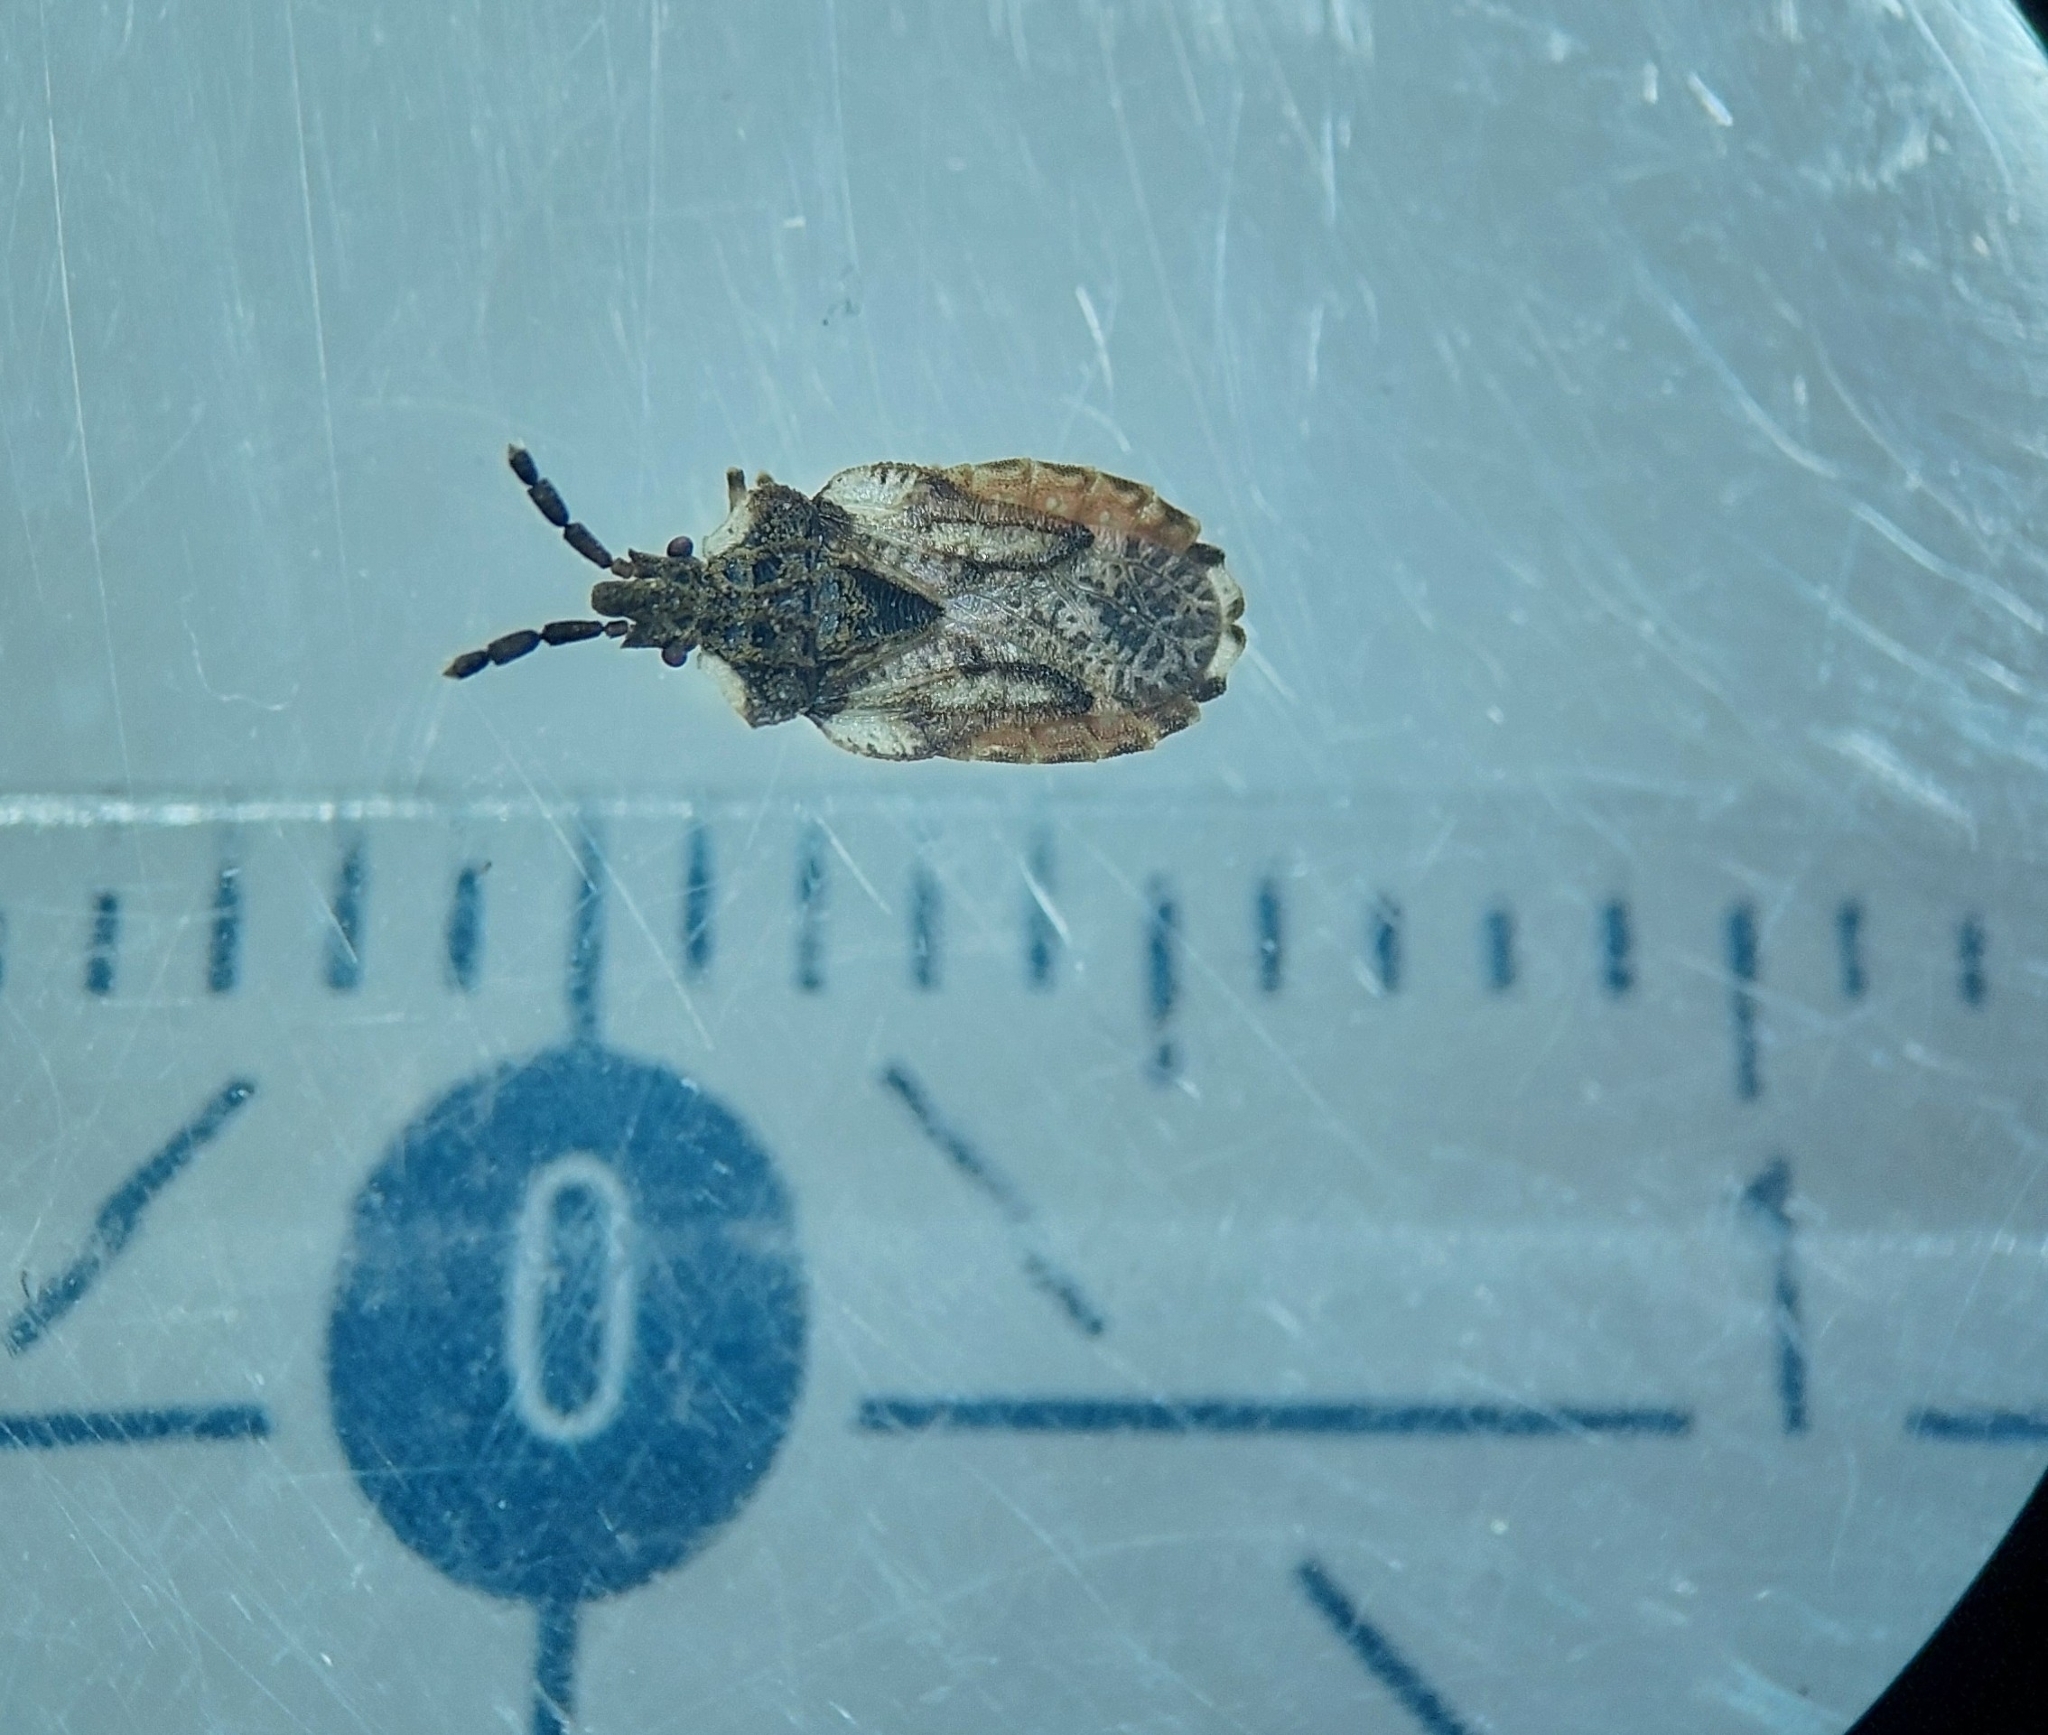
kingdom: Animalia
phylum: Arthropoda
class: Insecta
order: Hemiptera
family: Aradidae
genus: Aradus
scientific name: Aradus depressus
